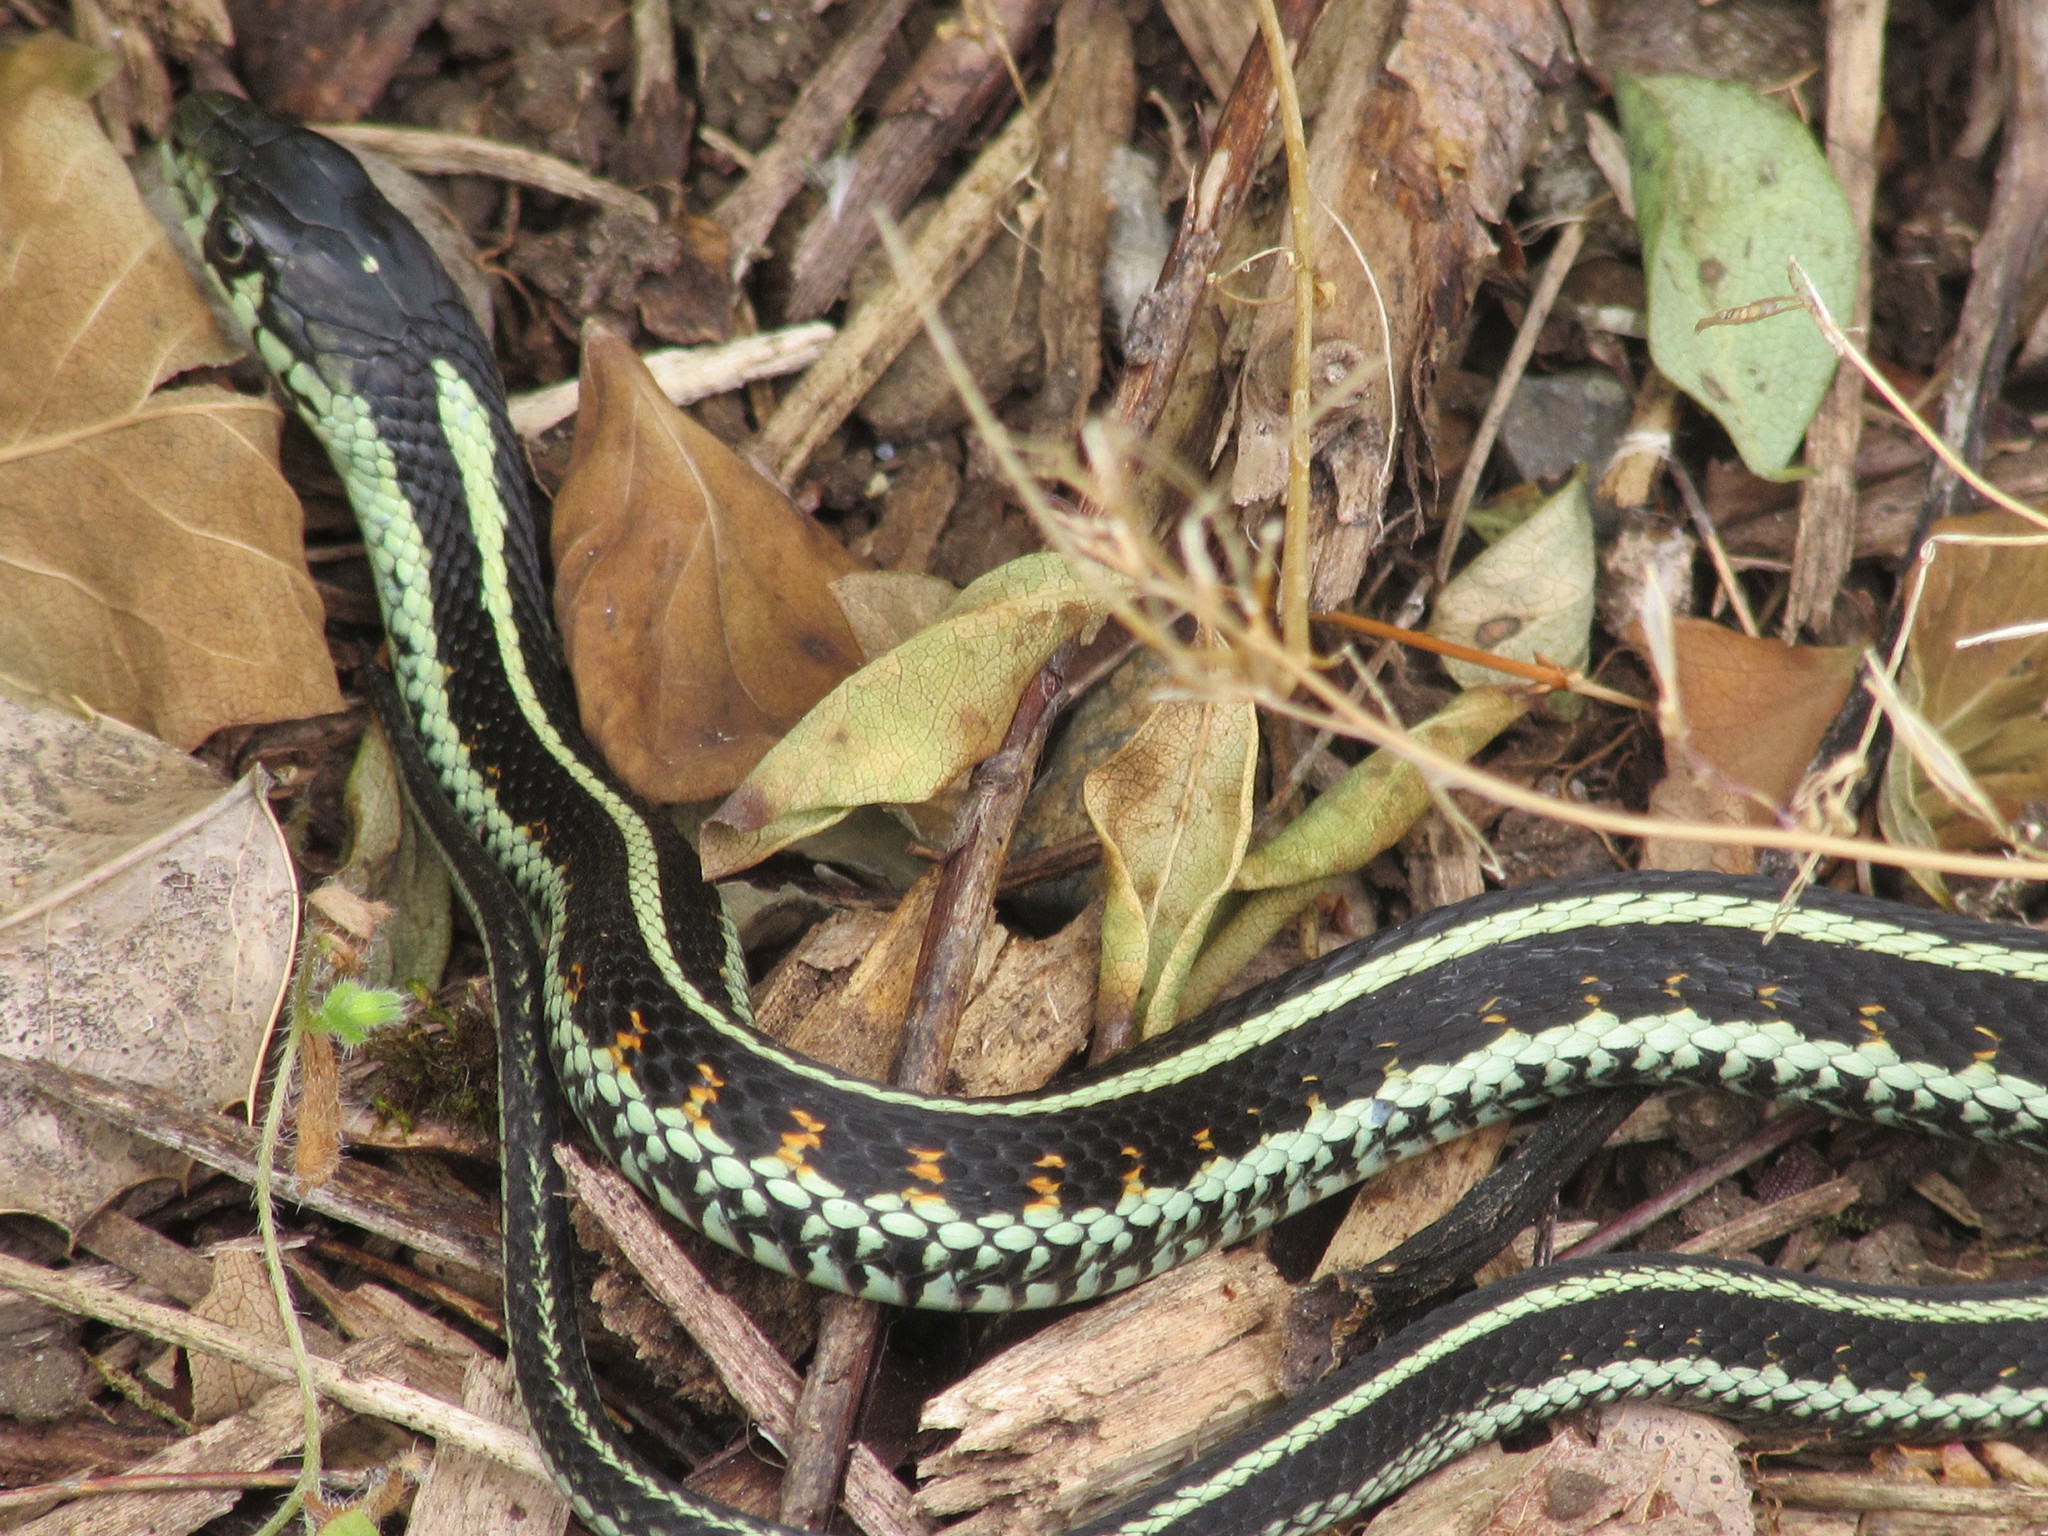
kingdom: Animalia
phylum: Chordata
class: Squamata
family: Colubridae
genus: Thamnophis
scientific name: Thamnophis sirtalis
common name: Common garter snake
